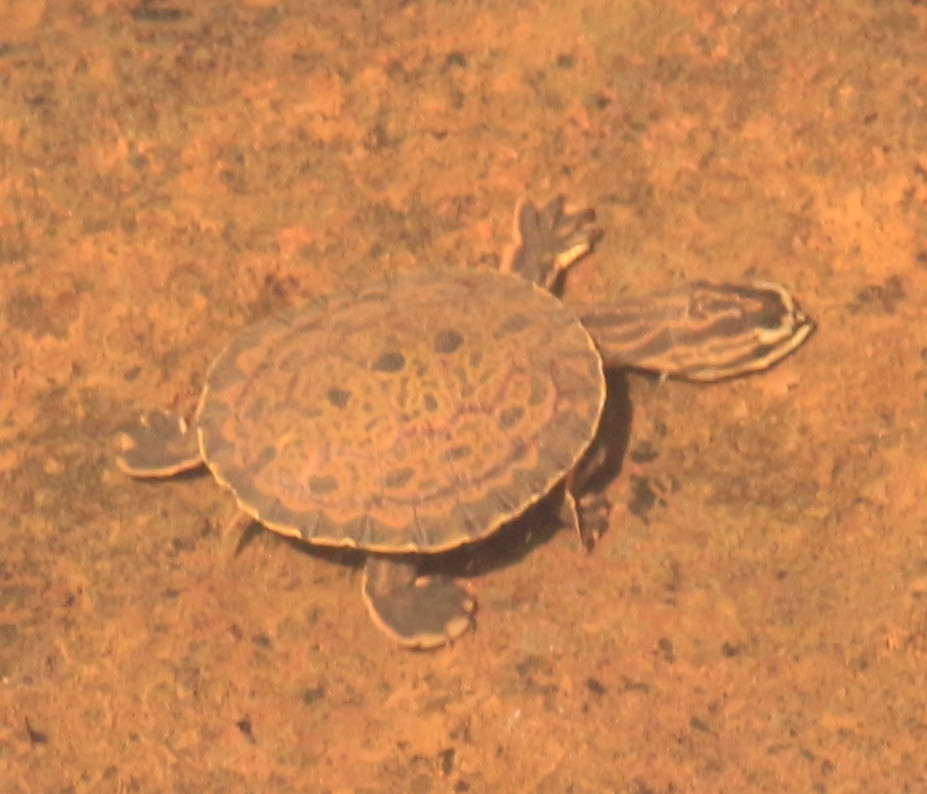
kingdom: Animalia
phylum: Chordata
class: Testudines
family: Chelidae
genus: Phrynops
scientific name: Phrynops williamsi
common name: Williams side-necked turtle
